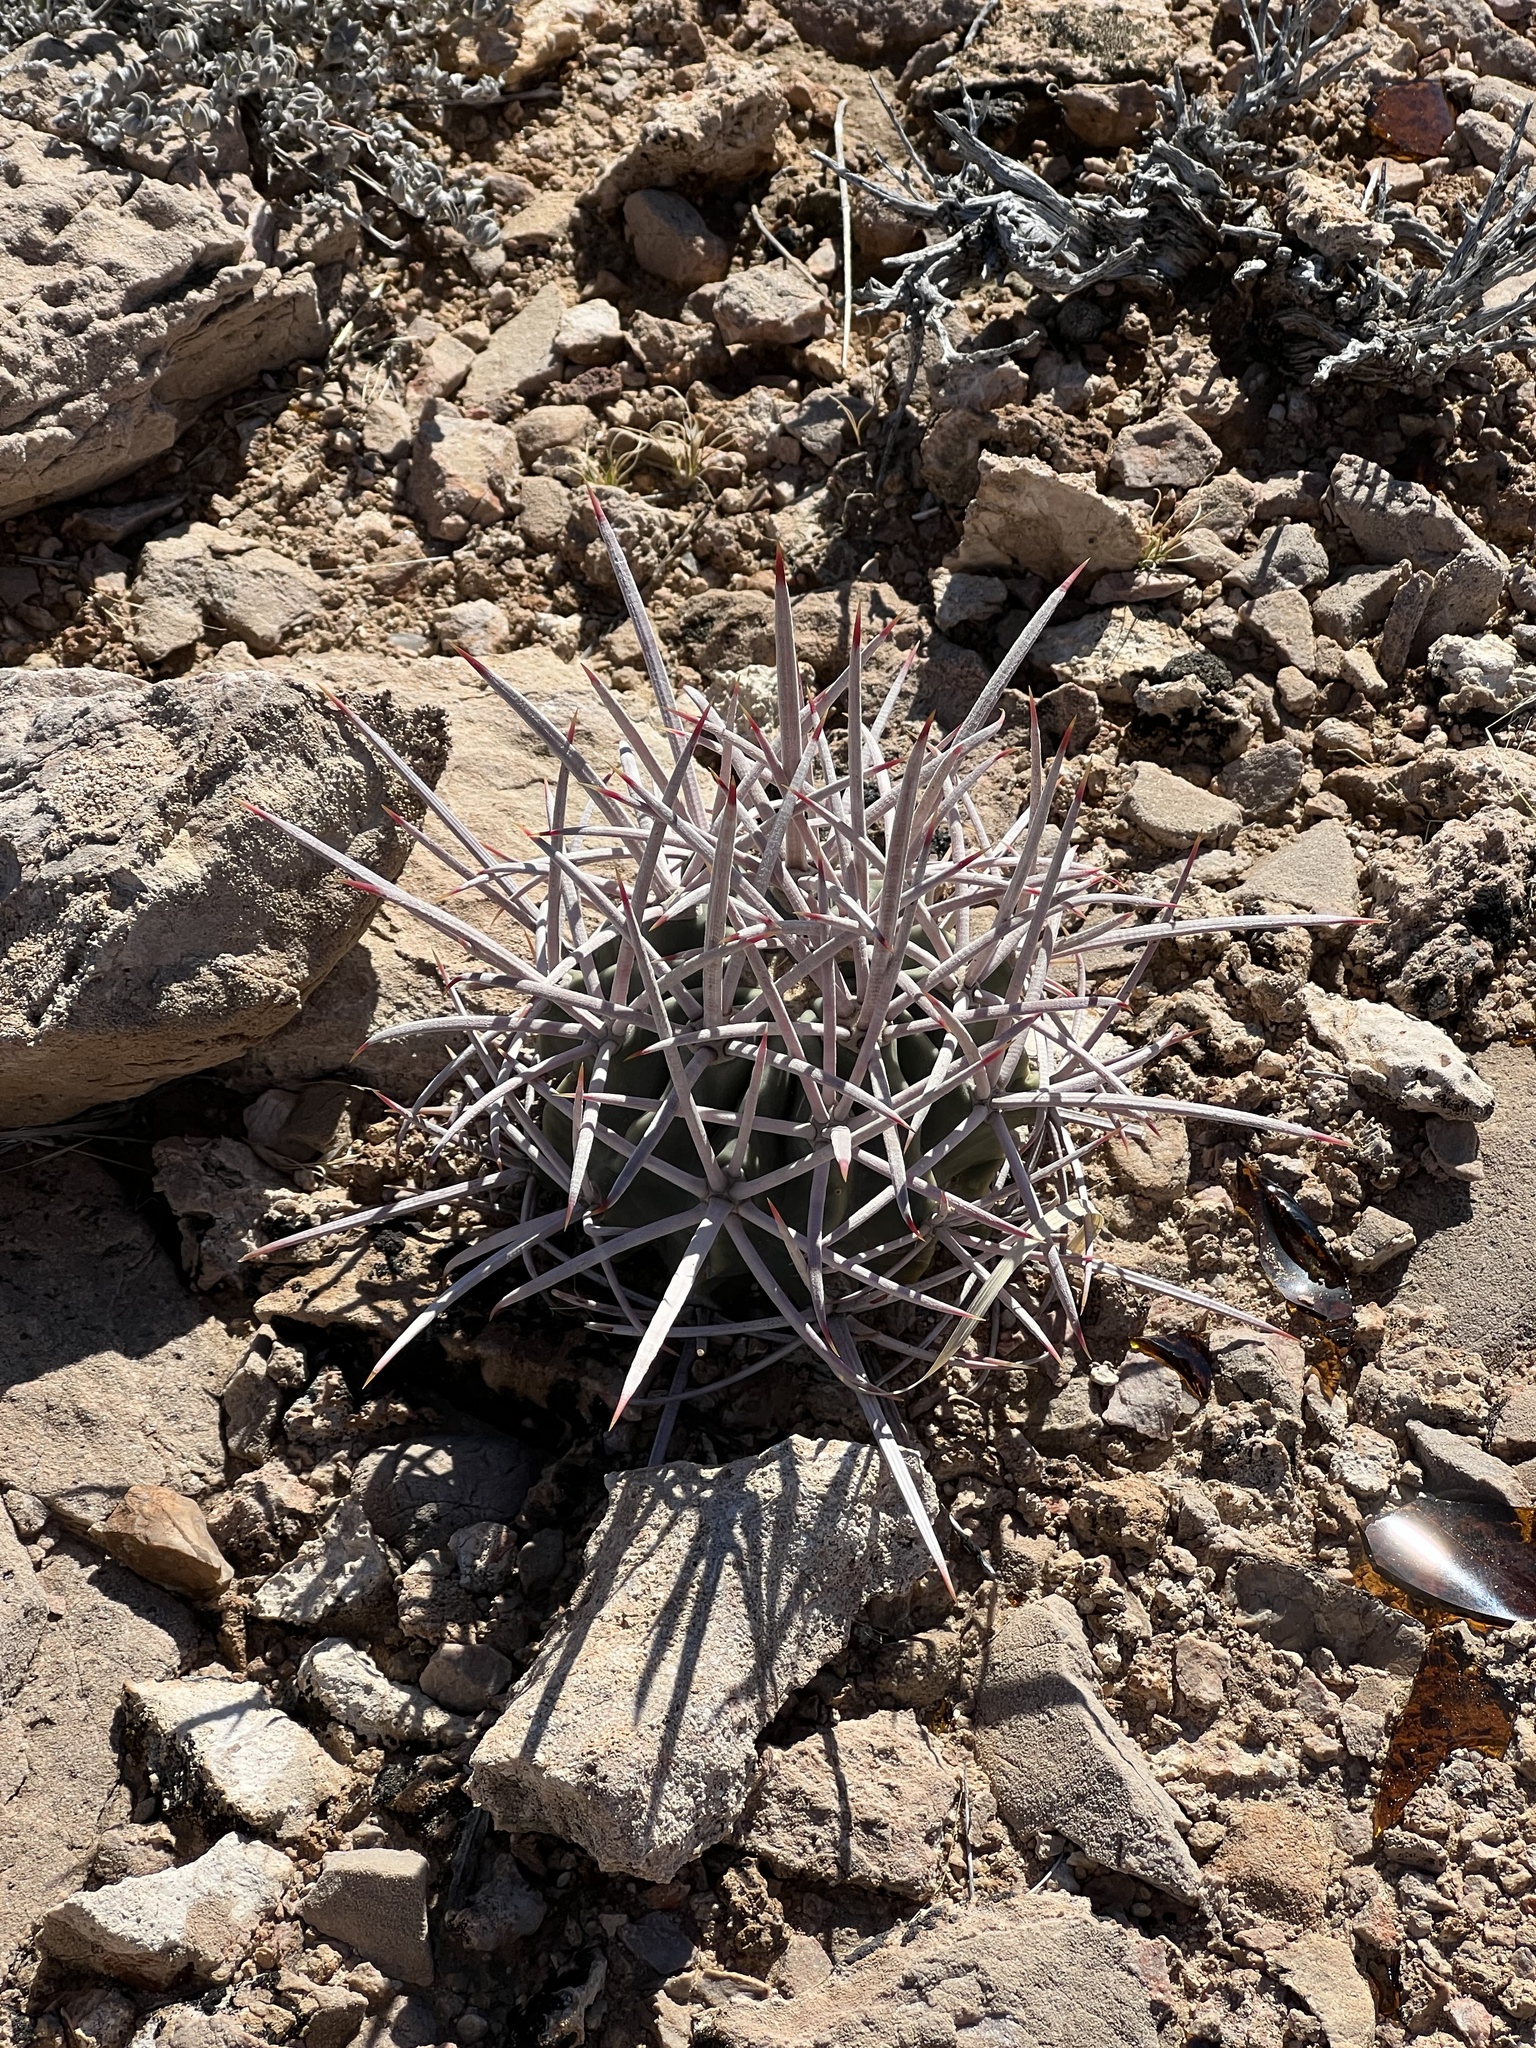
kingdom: Plantae
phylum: Tracheophyta
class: Magnoliopsida
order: Caryophyllales
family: Cactaceae
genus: Echinocactus
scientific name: Echinocactus polycephalus
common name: Cottontop cactus
